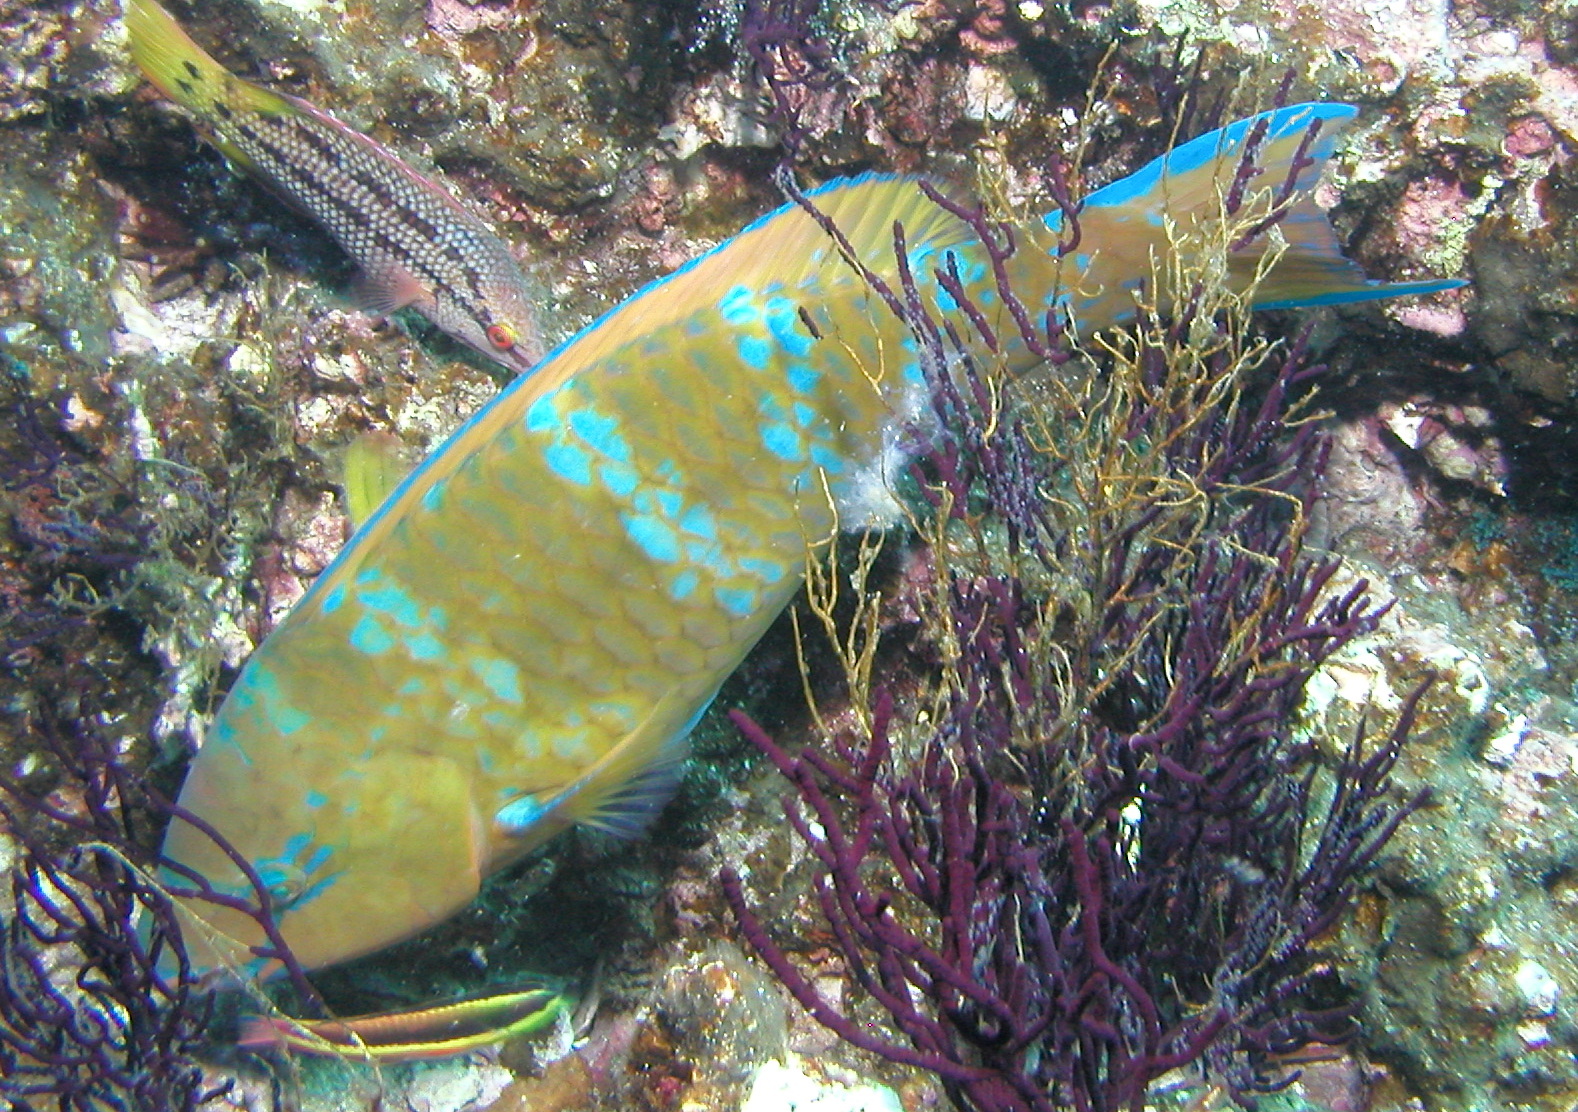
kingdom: Animalia
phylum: Chordata
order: Perciformes
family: Scaridae
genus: Scarus
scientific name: Scarus ghobban
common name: Blue-barred parrotfish
